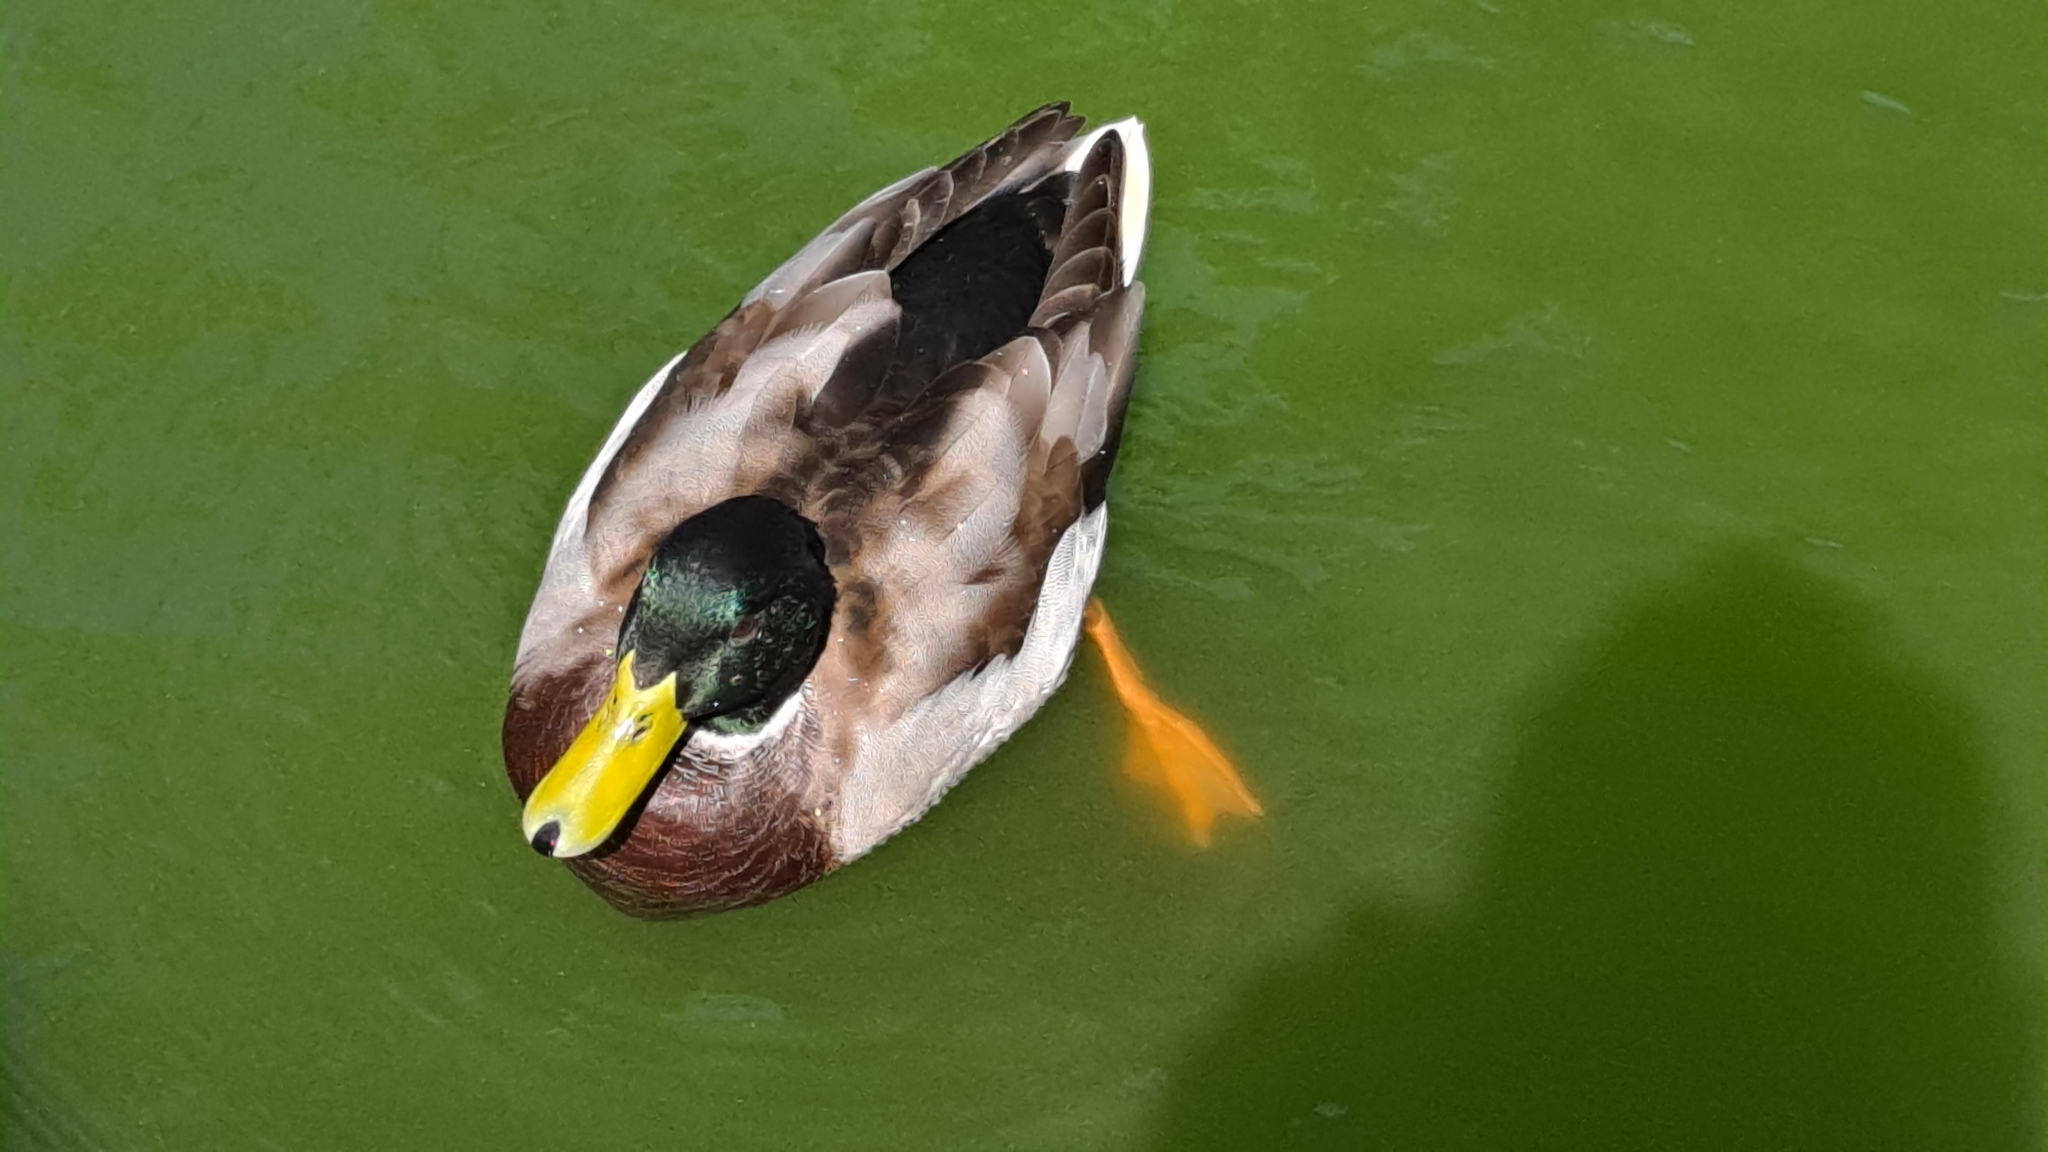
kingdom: Animalia
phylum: Chordata
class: Aves
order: Anseriformes
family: Anatidae
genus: Anas
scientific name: Anas platyrhynchos
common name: Mallard
